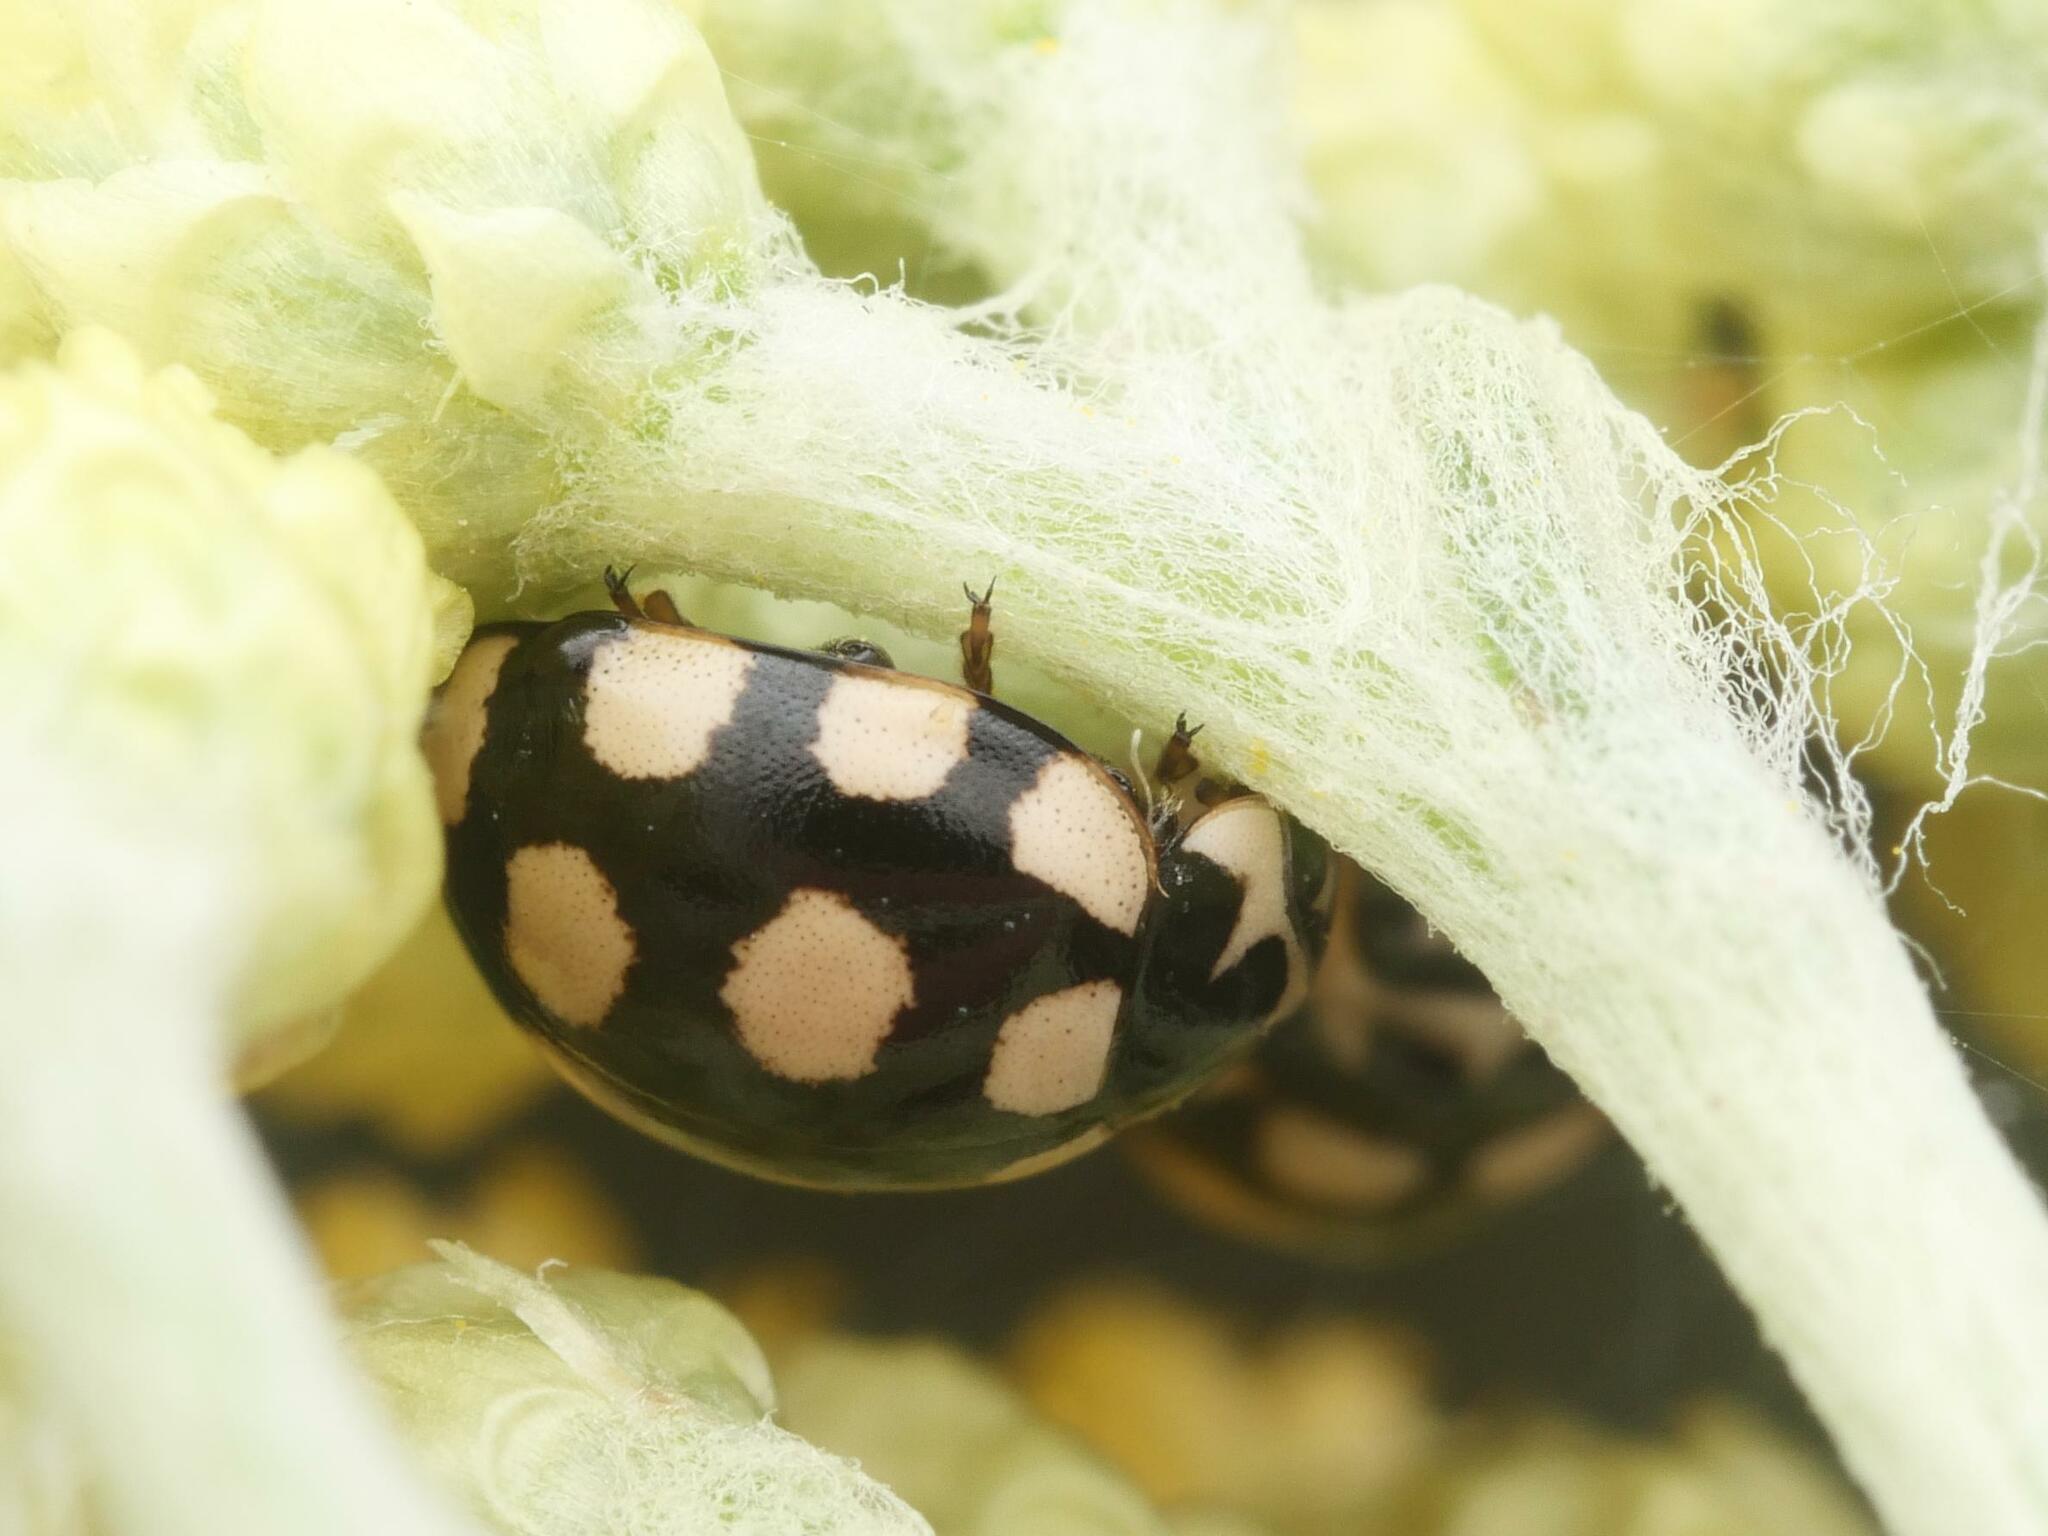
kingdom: Animalia
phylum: Arthropoda
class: Insecta
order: Coleoptera
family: Coccinellidae
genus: Coccinula
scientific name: Coccinula quatuordecimpustulata
